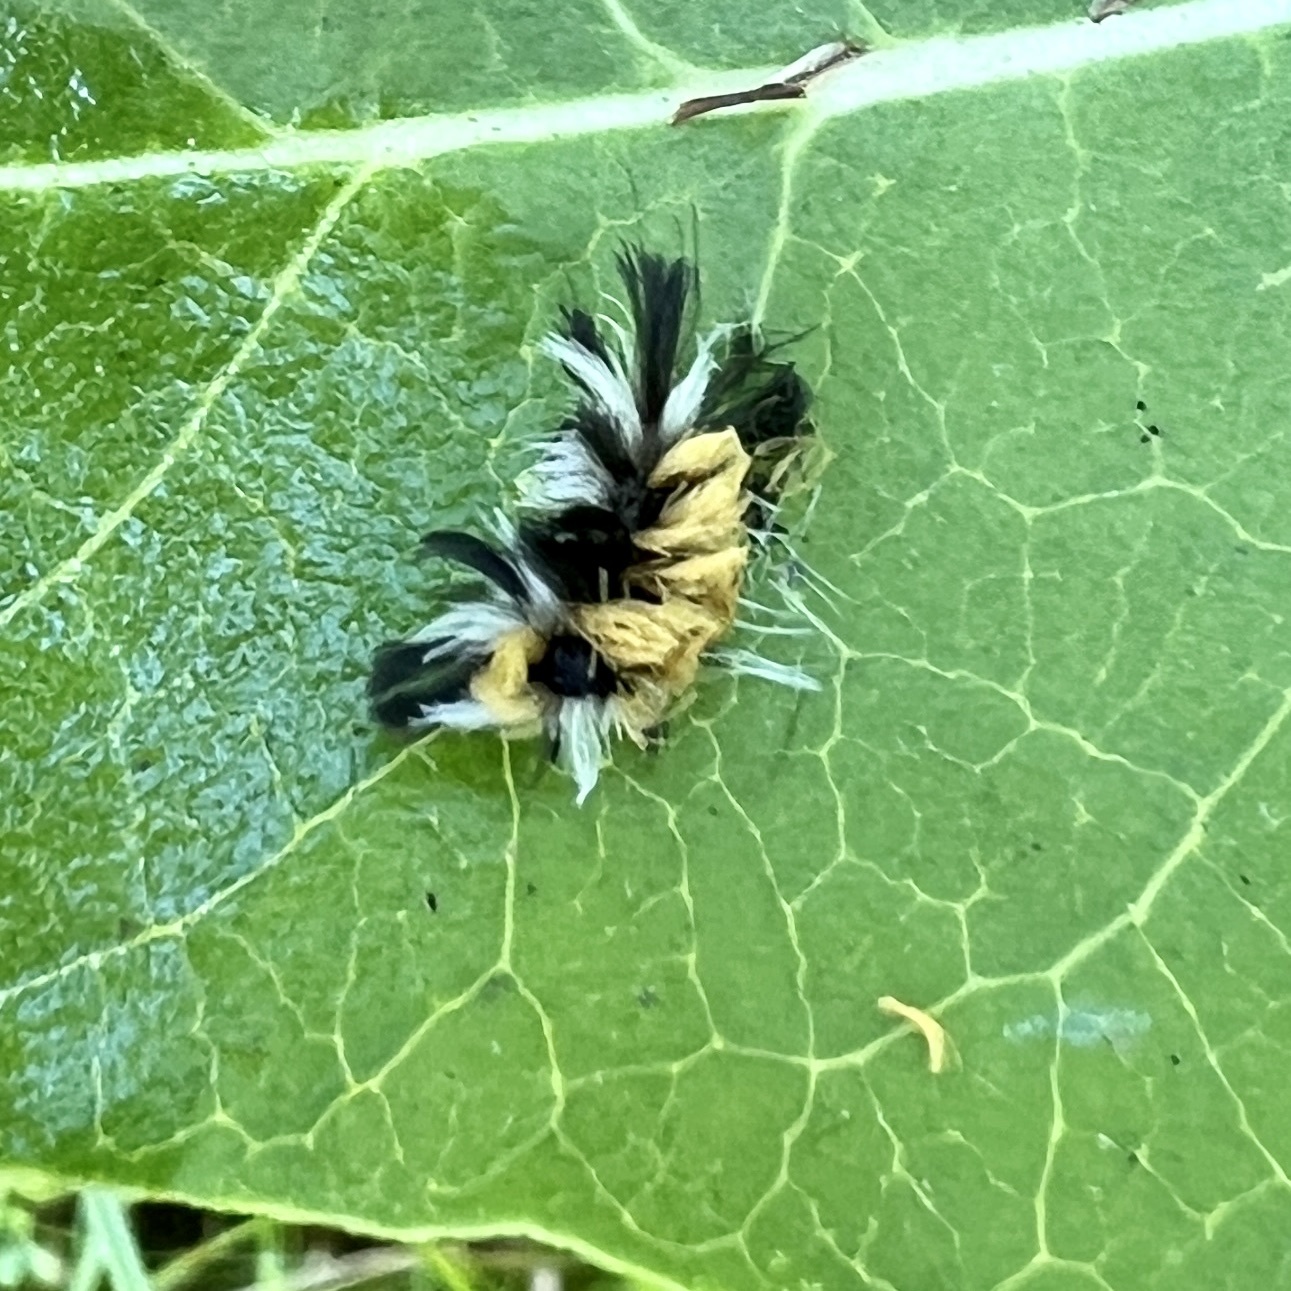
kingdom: Animalia
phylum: Arthropoda
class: Insecta
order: Lepidoptera
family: Erebidae
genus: Euchaetes
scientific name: Euchaetes egle
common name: Milkweed tussock moth
